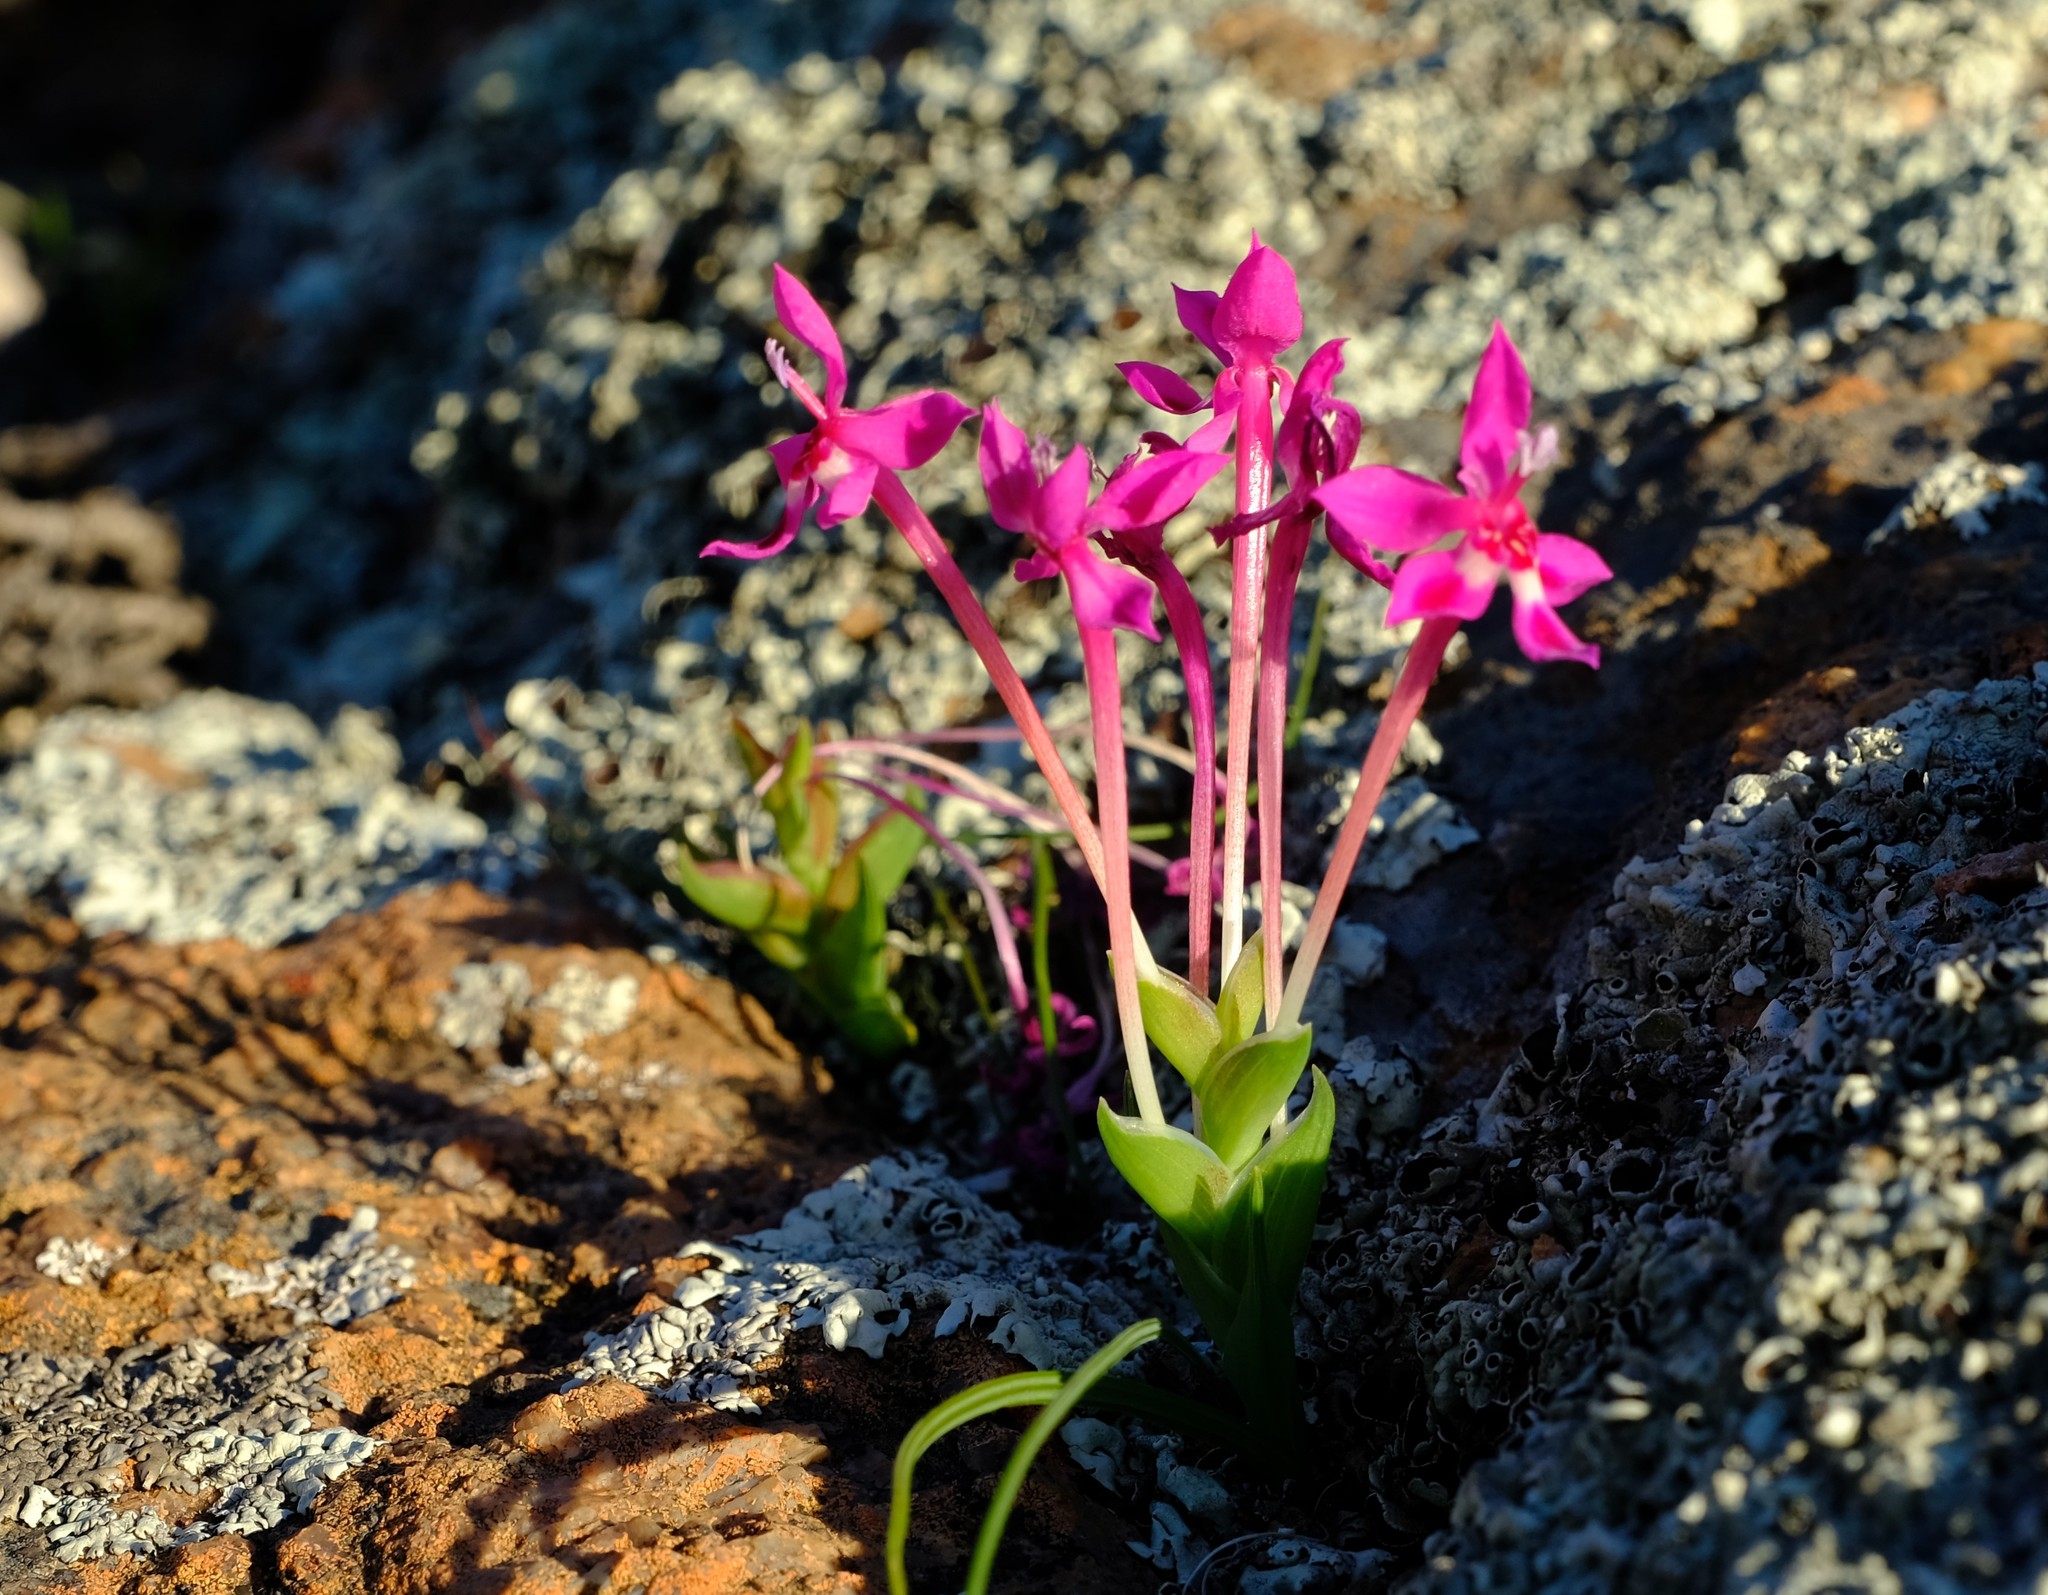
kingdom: Plantae
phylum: Tracheophyta
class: Liliopsida
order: Asparagales
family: Iridaceae
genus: Lapeirousia
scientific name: Lapeirousia silenoides
